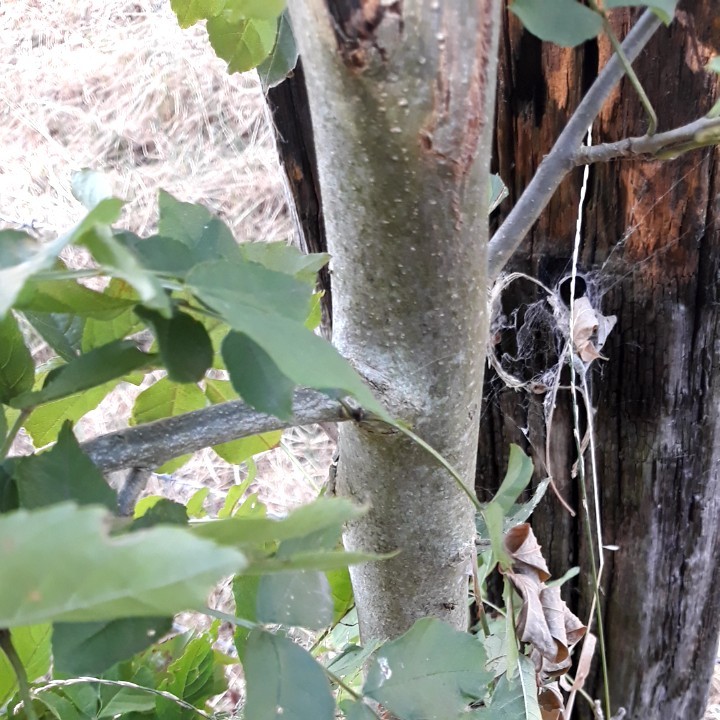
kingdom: Plantae
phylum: Tracheophyta
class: Magnoliopsida
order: Lamiales
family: Oleaceae
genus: Fraxinus
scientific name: Fraxinus excelsior
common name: European ash
